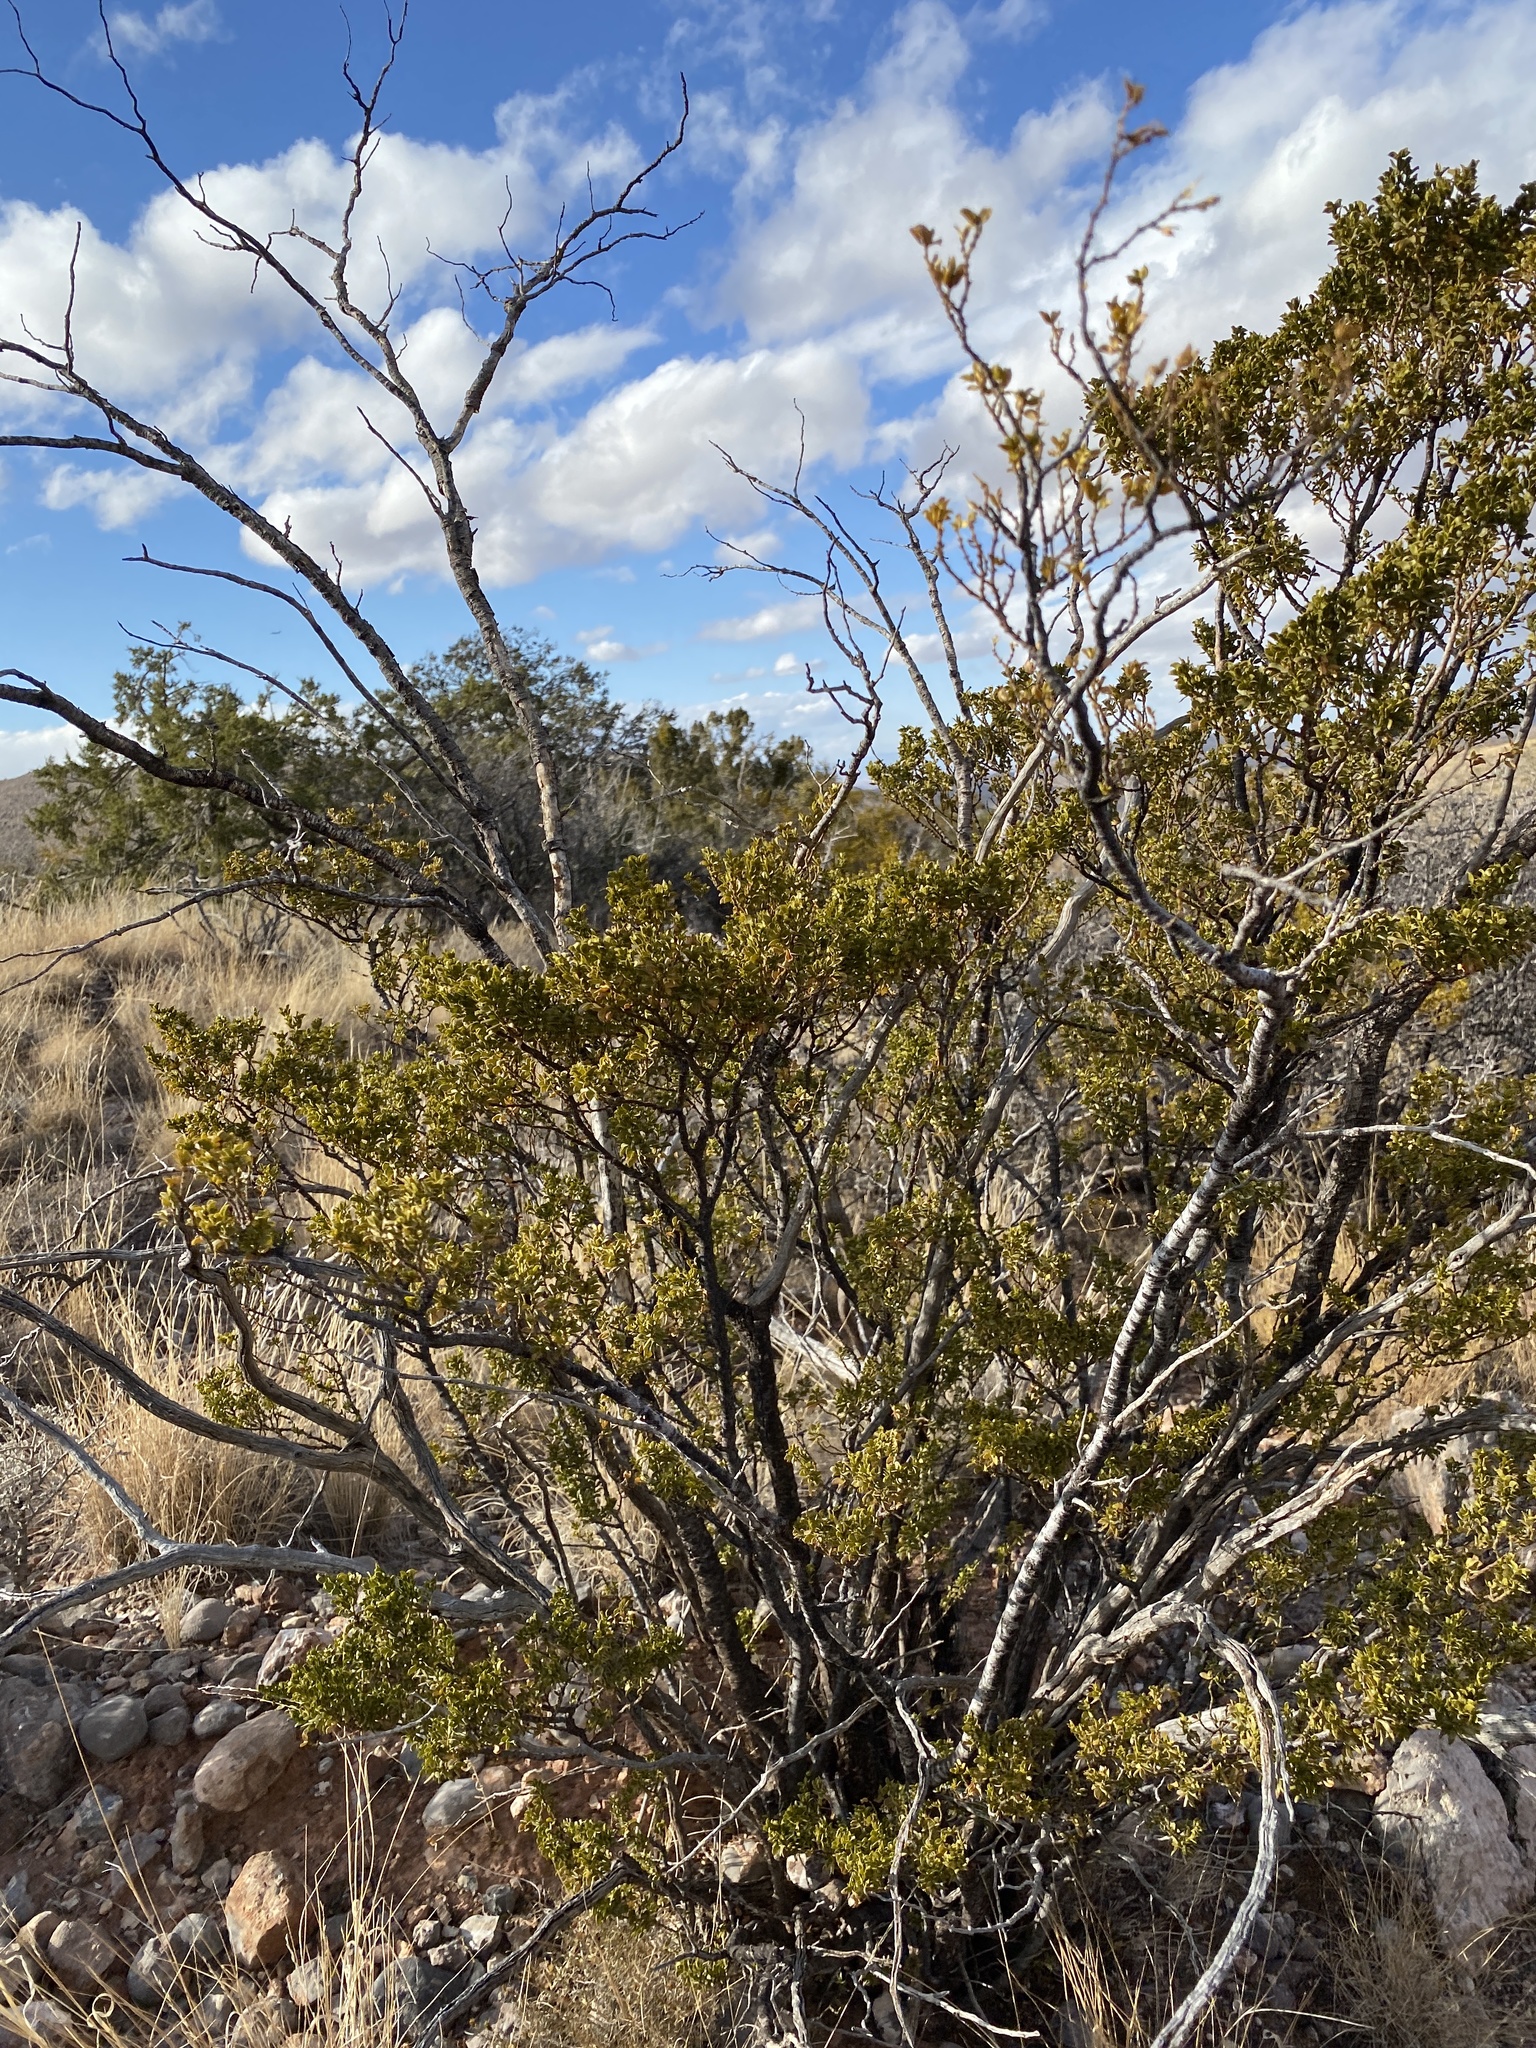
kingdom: Plantae
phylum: Tracheophyta
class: Magnoliopsida
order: Zygophyllales
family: Zygophyllaceae
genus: Larrea
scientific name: Larrea tridentata
